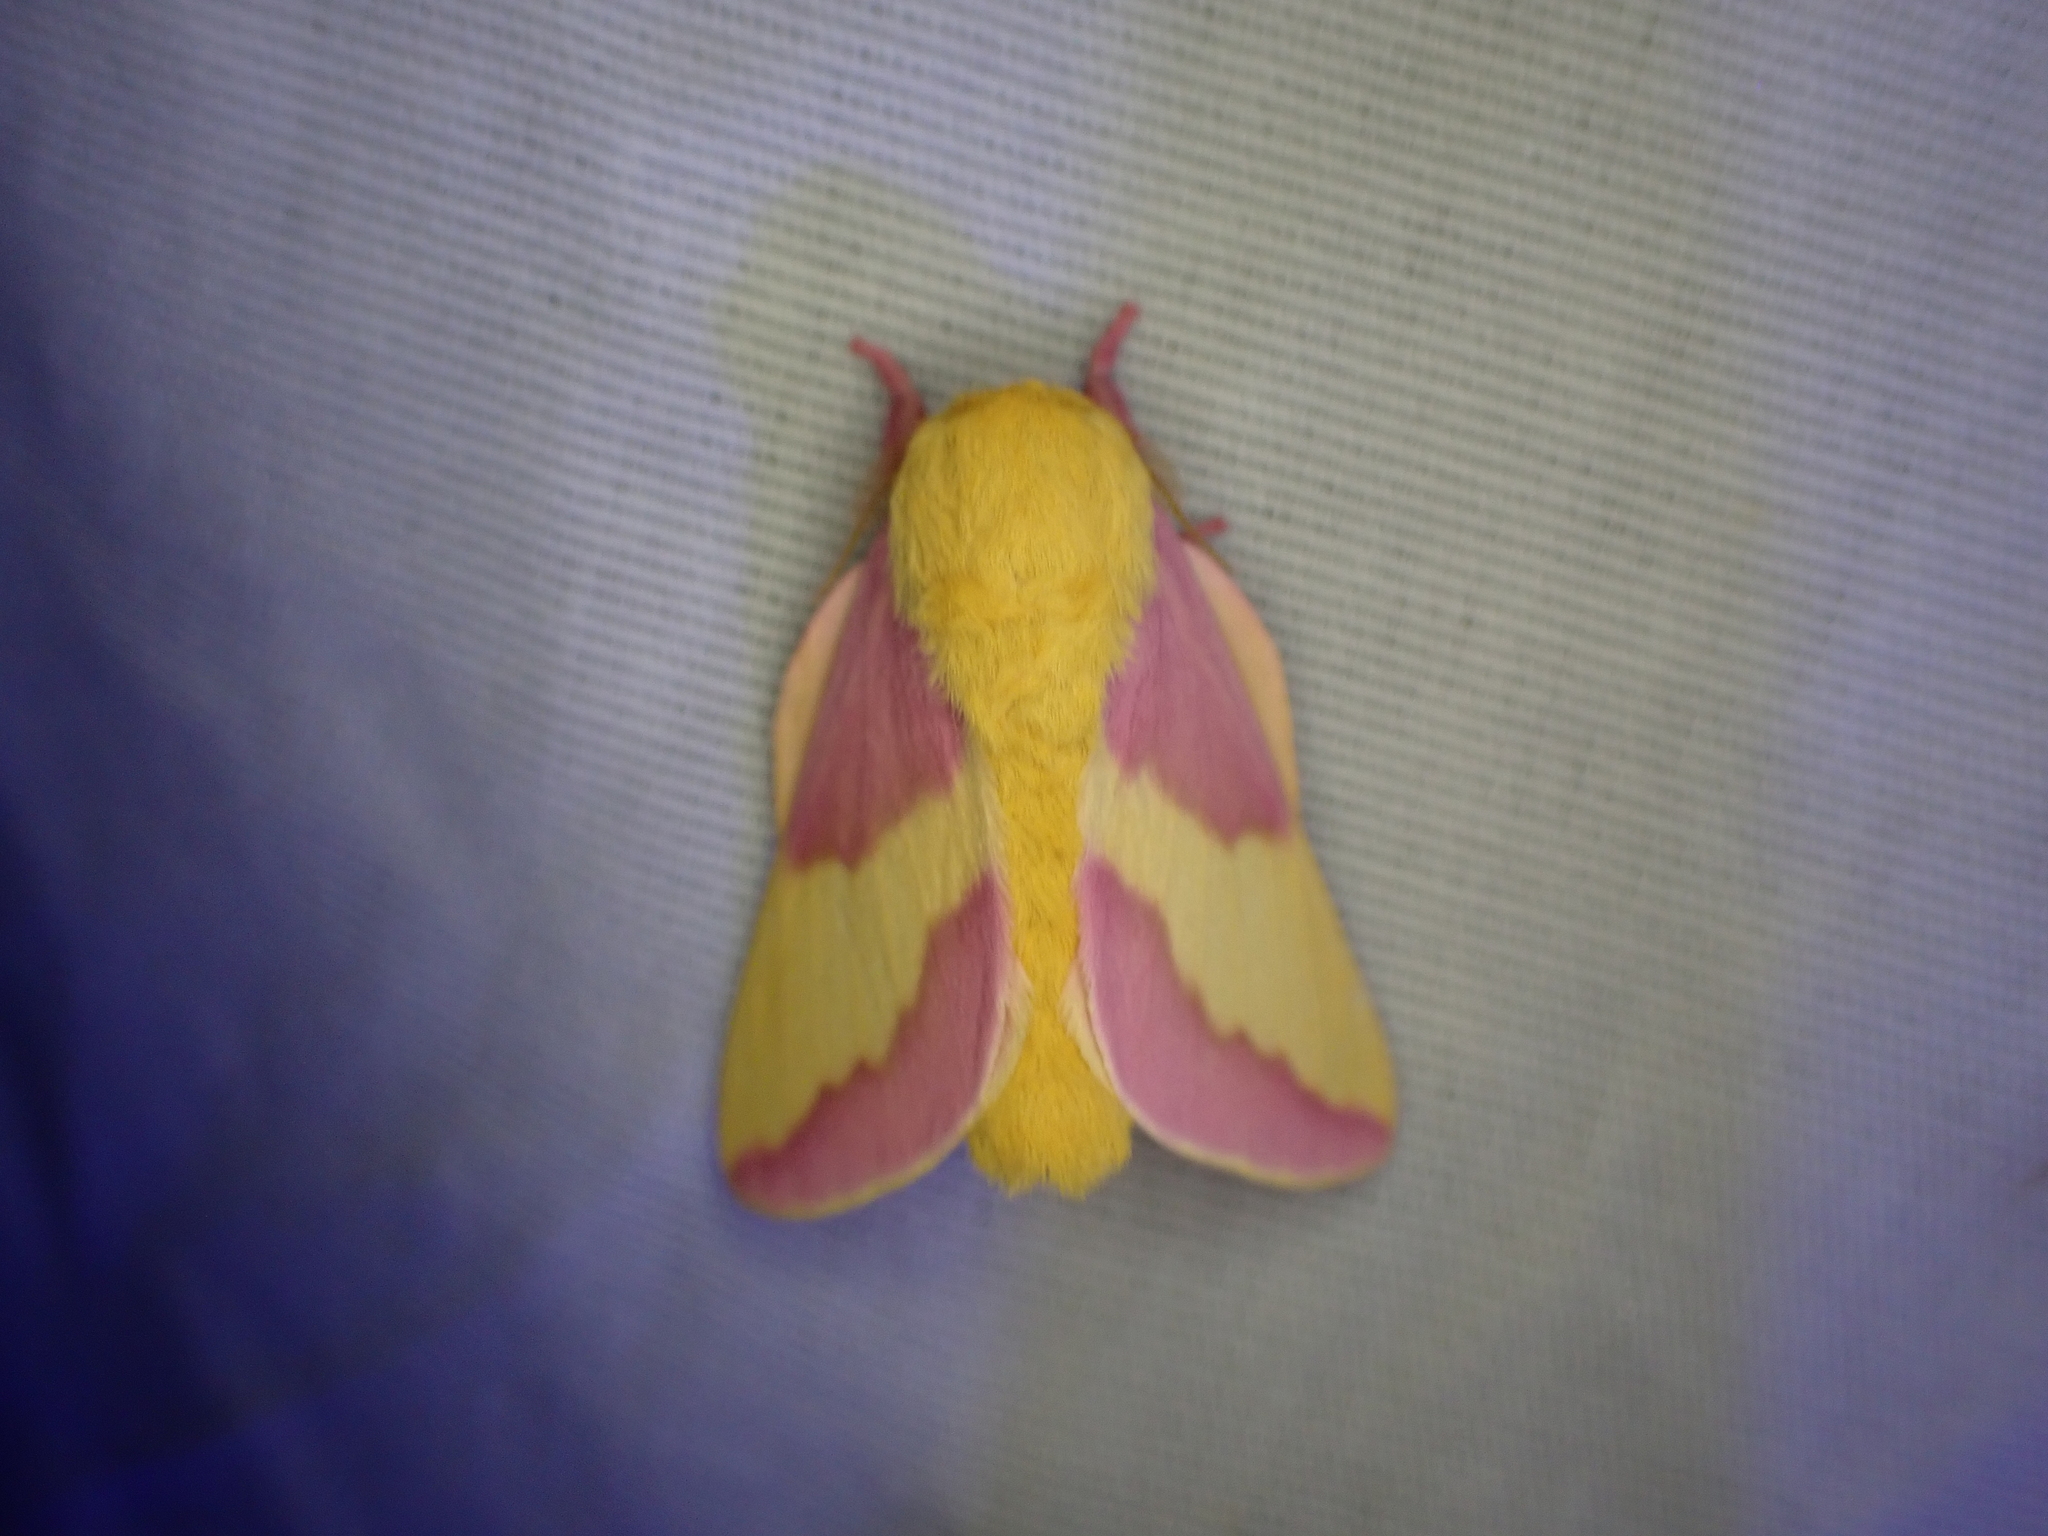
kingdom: Animalia
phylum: Arthropoda
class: Insecta
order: Lepidoptera
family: Saturniidae
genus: Dryocampa
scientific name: Dryocampa rubicunda
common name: Rosy maple moth
